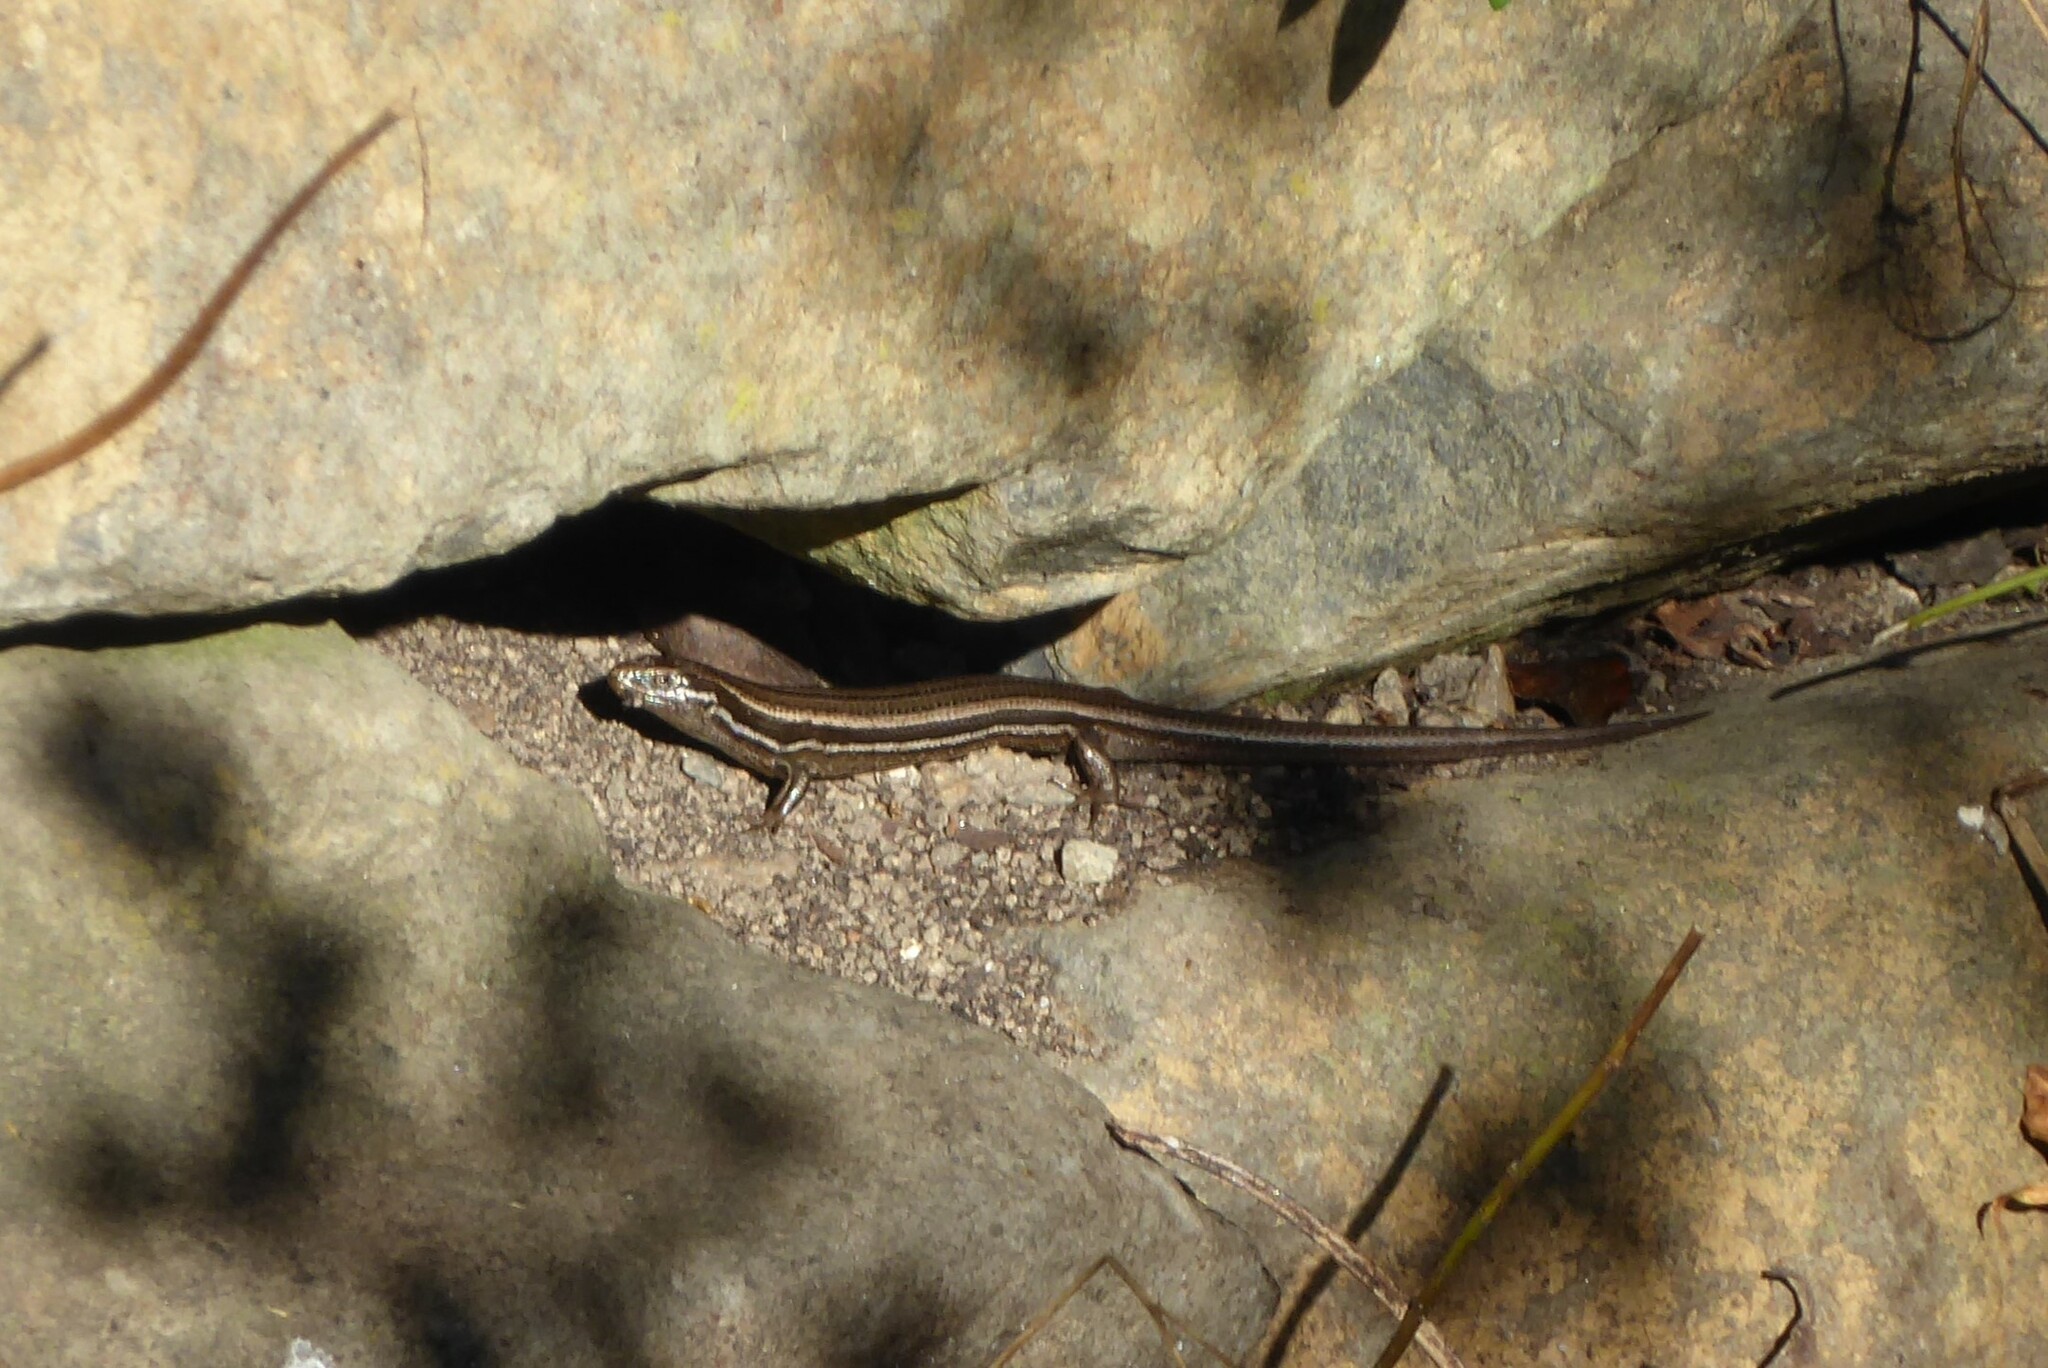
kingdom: Animalia
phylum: Chordata
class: Squamata
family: Scincidae
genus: Oligosoma
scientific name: Oligosoma polychroma
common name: Common new zealand skink
